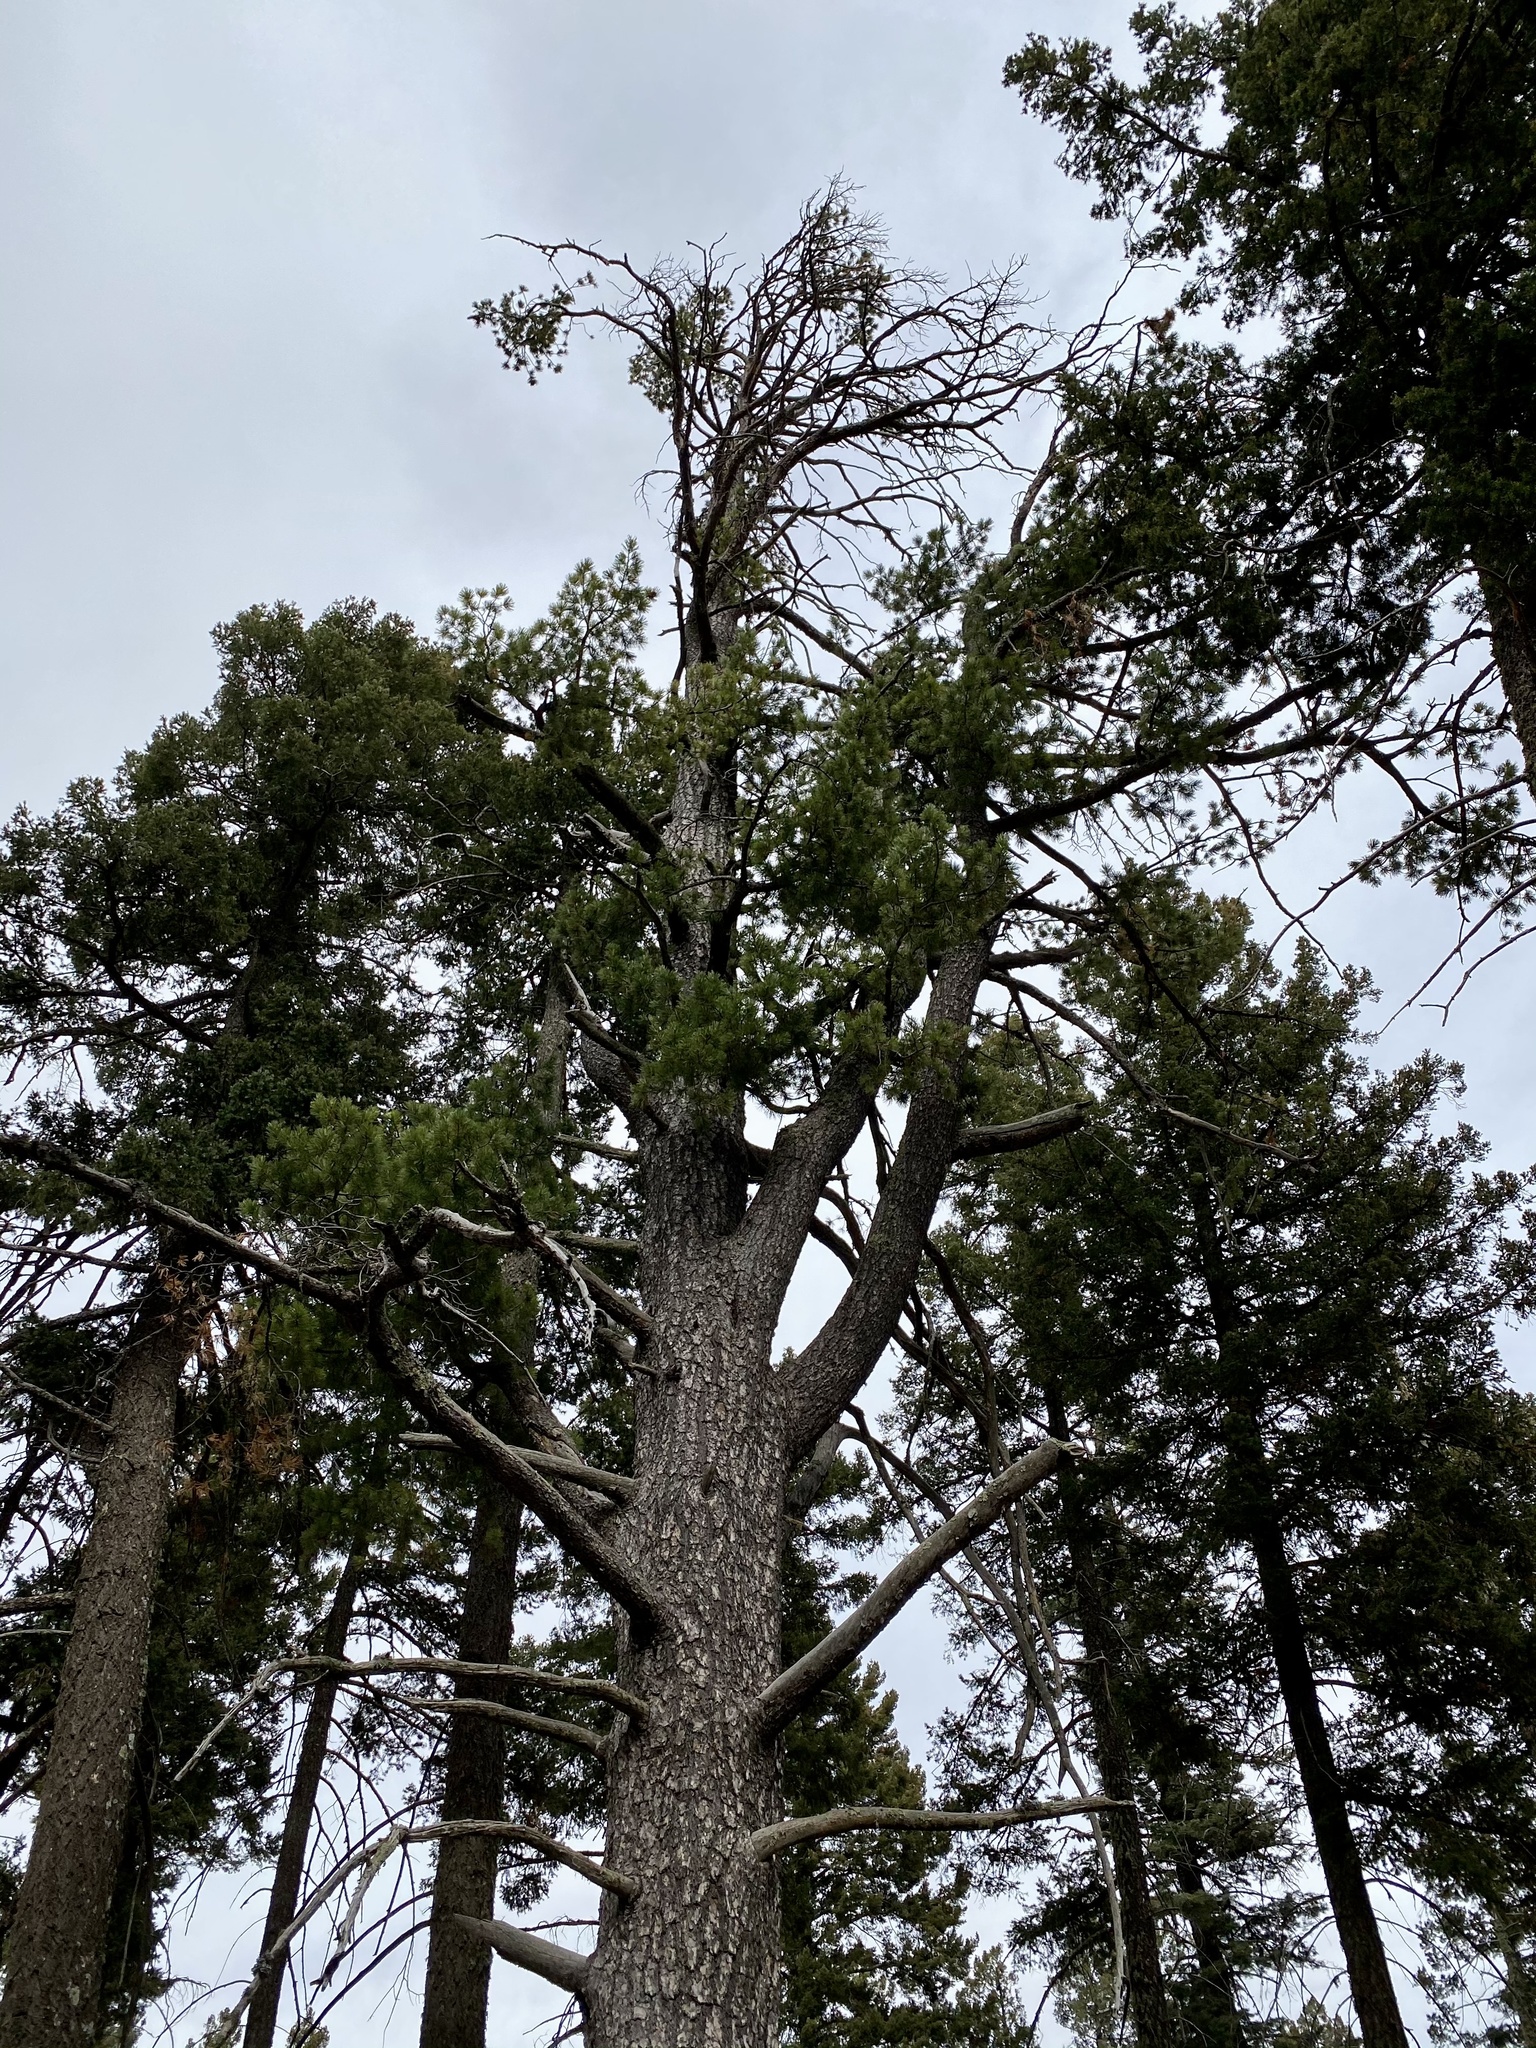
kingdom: Plantae
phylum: Tracheophyta
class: Pinopsida
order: Pinales
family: Pinaceae
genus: Pinus
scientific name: Pinus strobiformis
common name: Southwestern white pine
